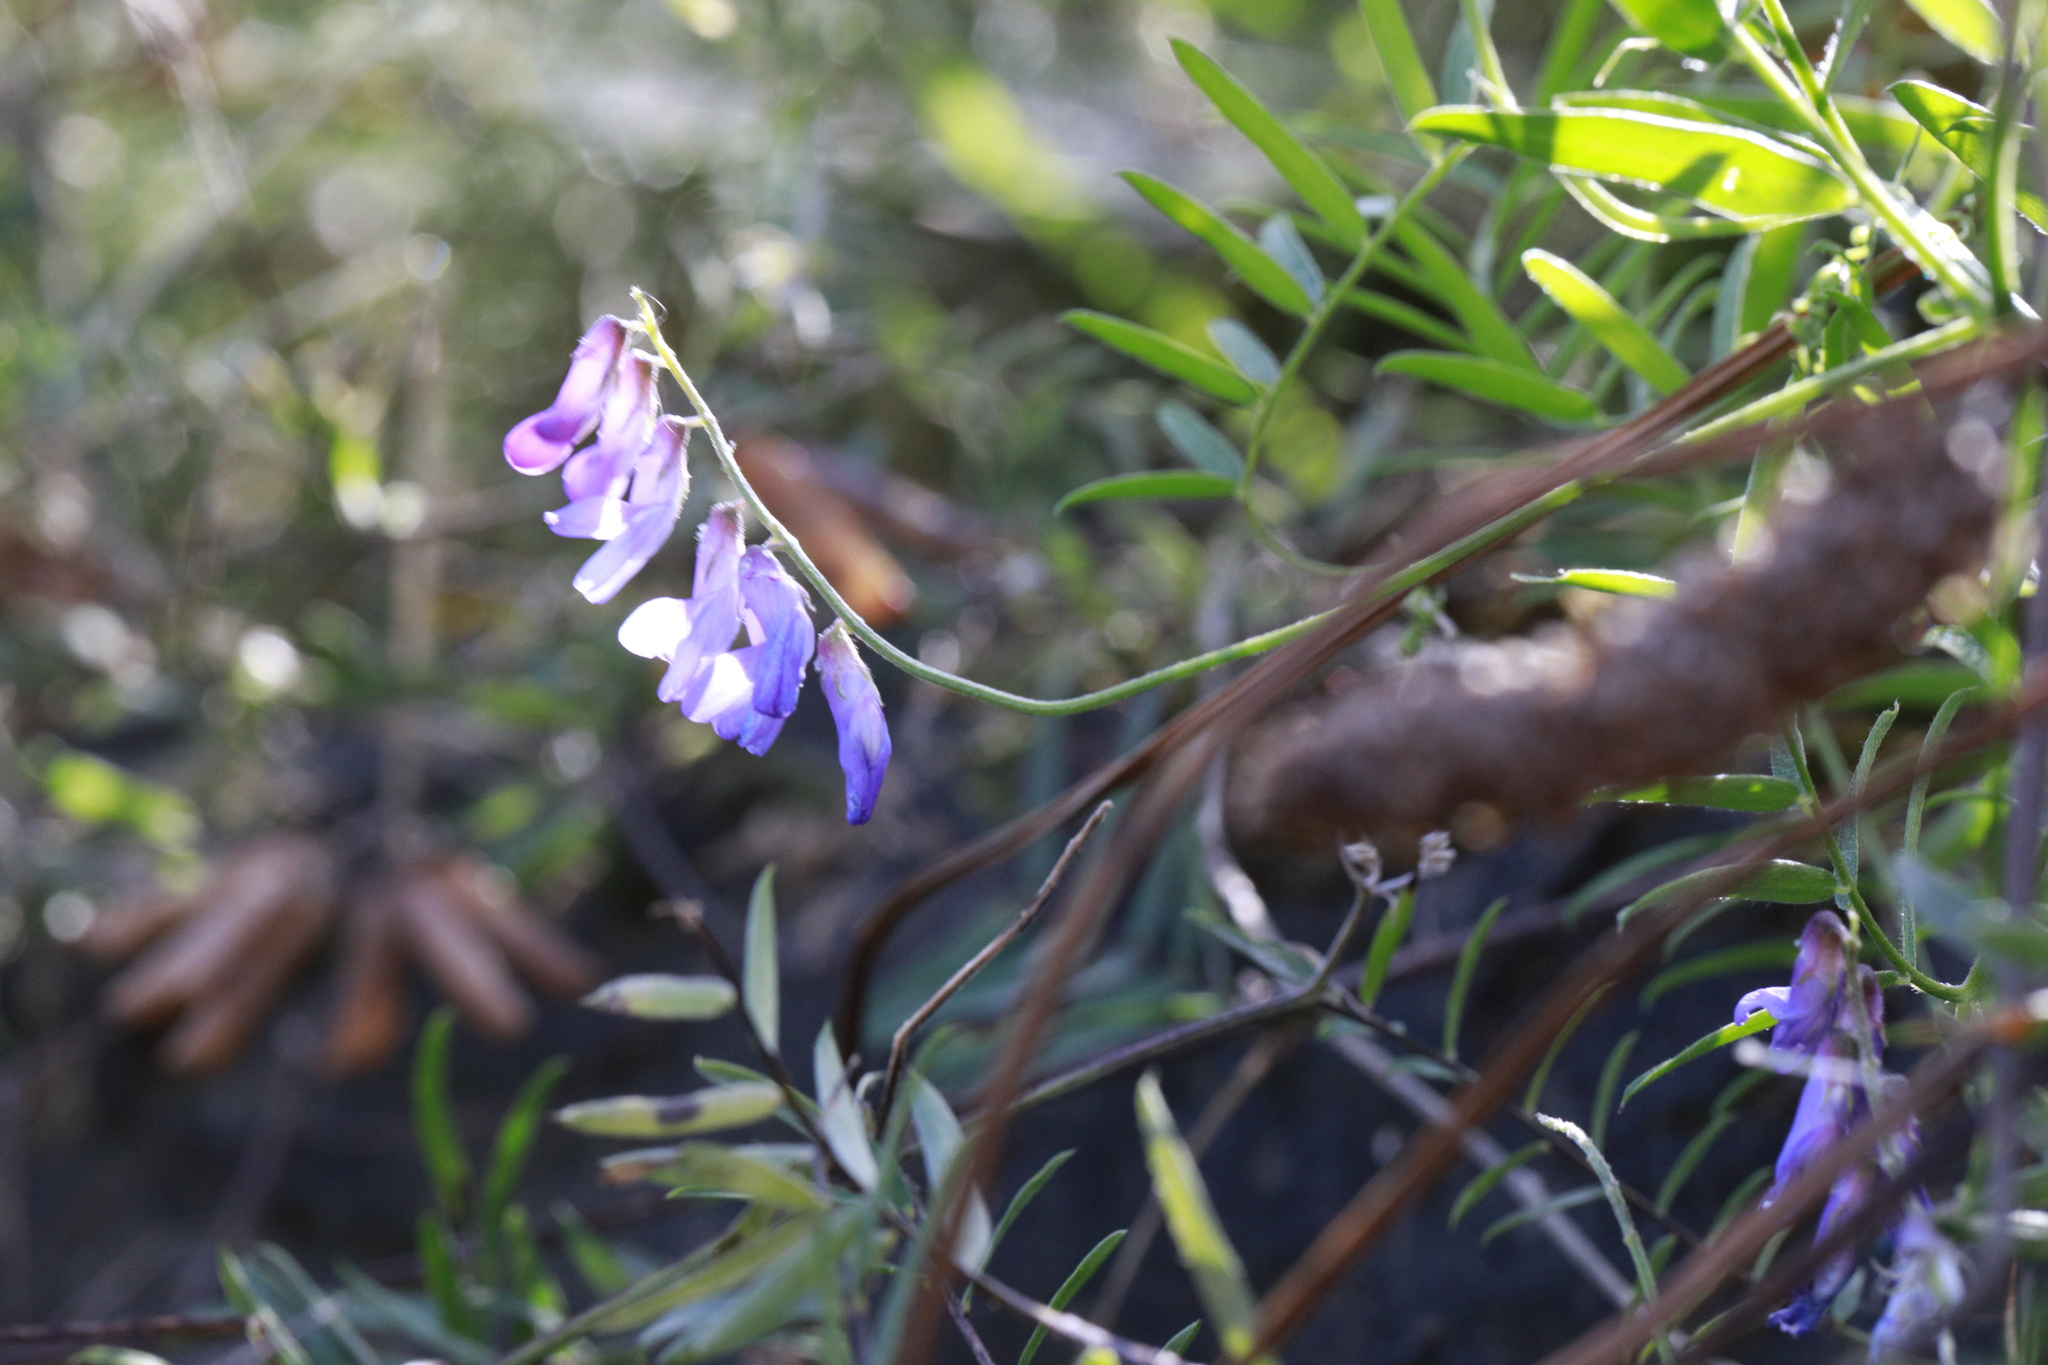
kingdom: Plantae
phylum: Tracheophyta
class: Magnoliopsida
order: Fabales
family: Fabaceae
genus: Vicia
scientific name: Vicia cracca
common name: Bird vetch
